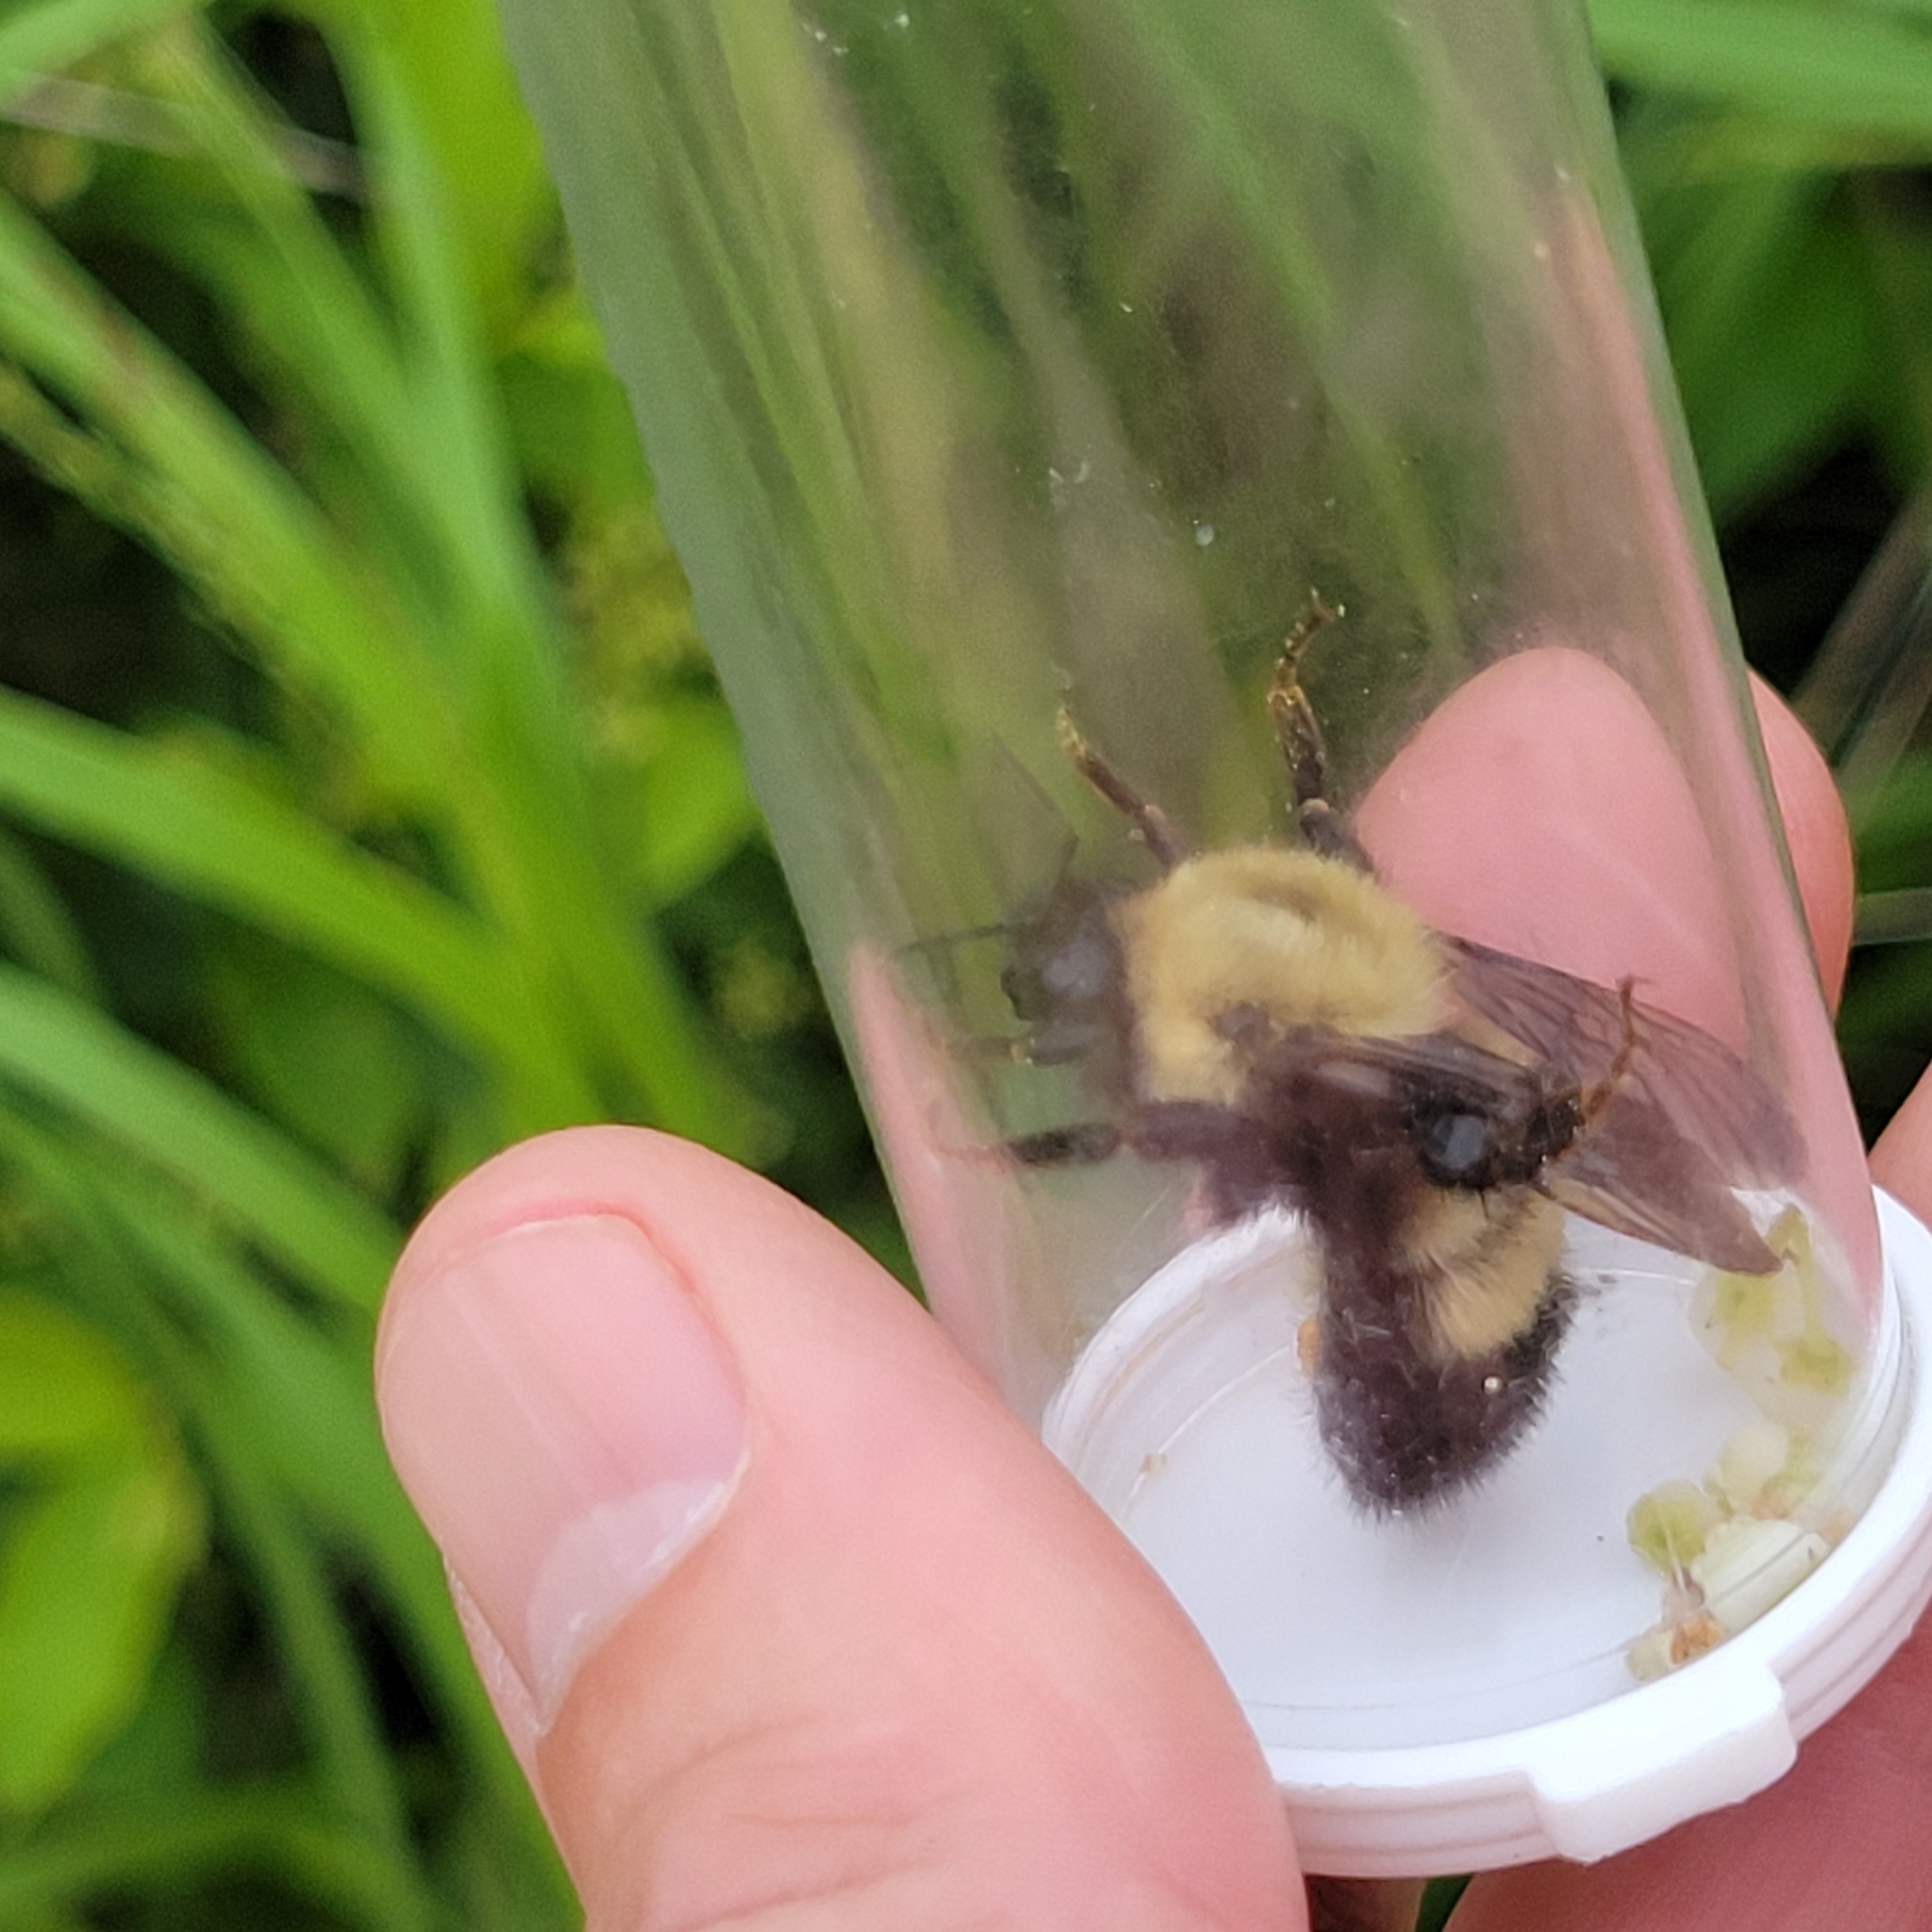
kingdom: Animalia
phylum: Arthropoda
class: Insecta
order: Hymenoptera
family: Apidae
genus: Bombus
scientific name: Bombus perplexus
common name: Confusing bumble bee
